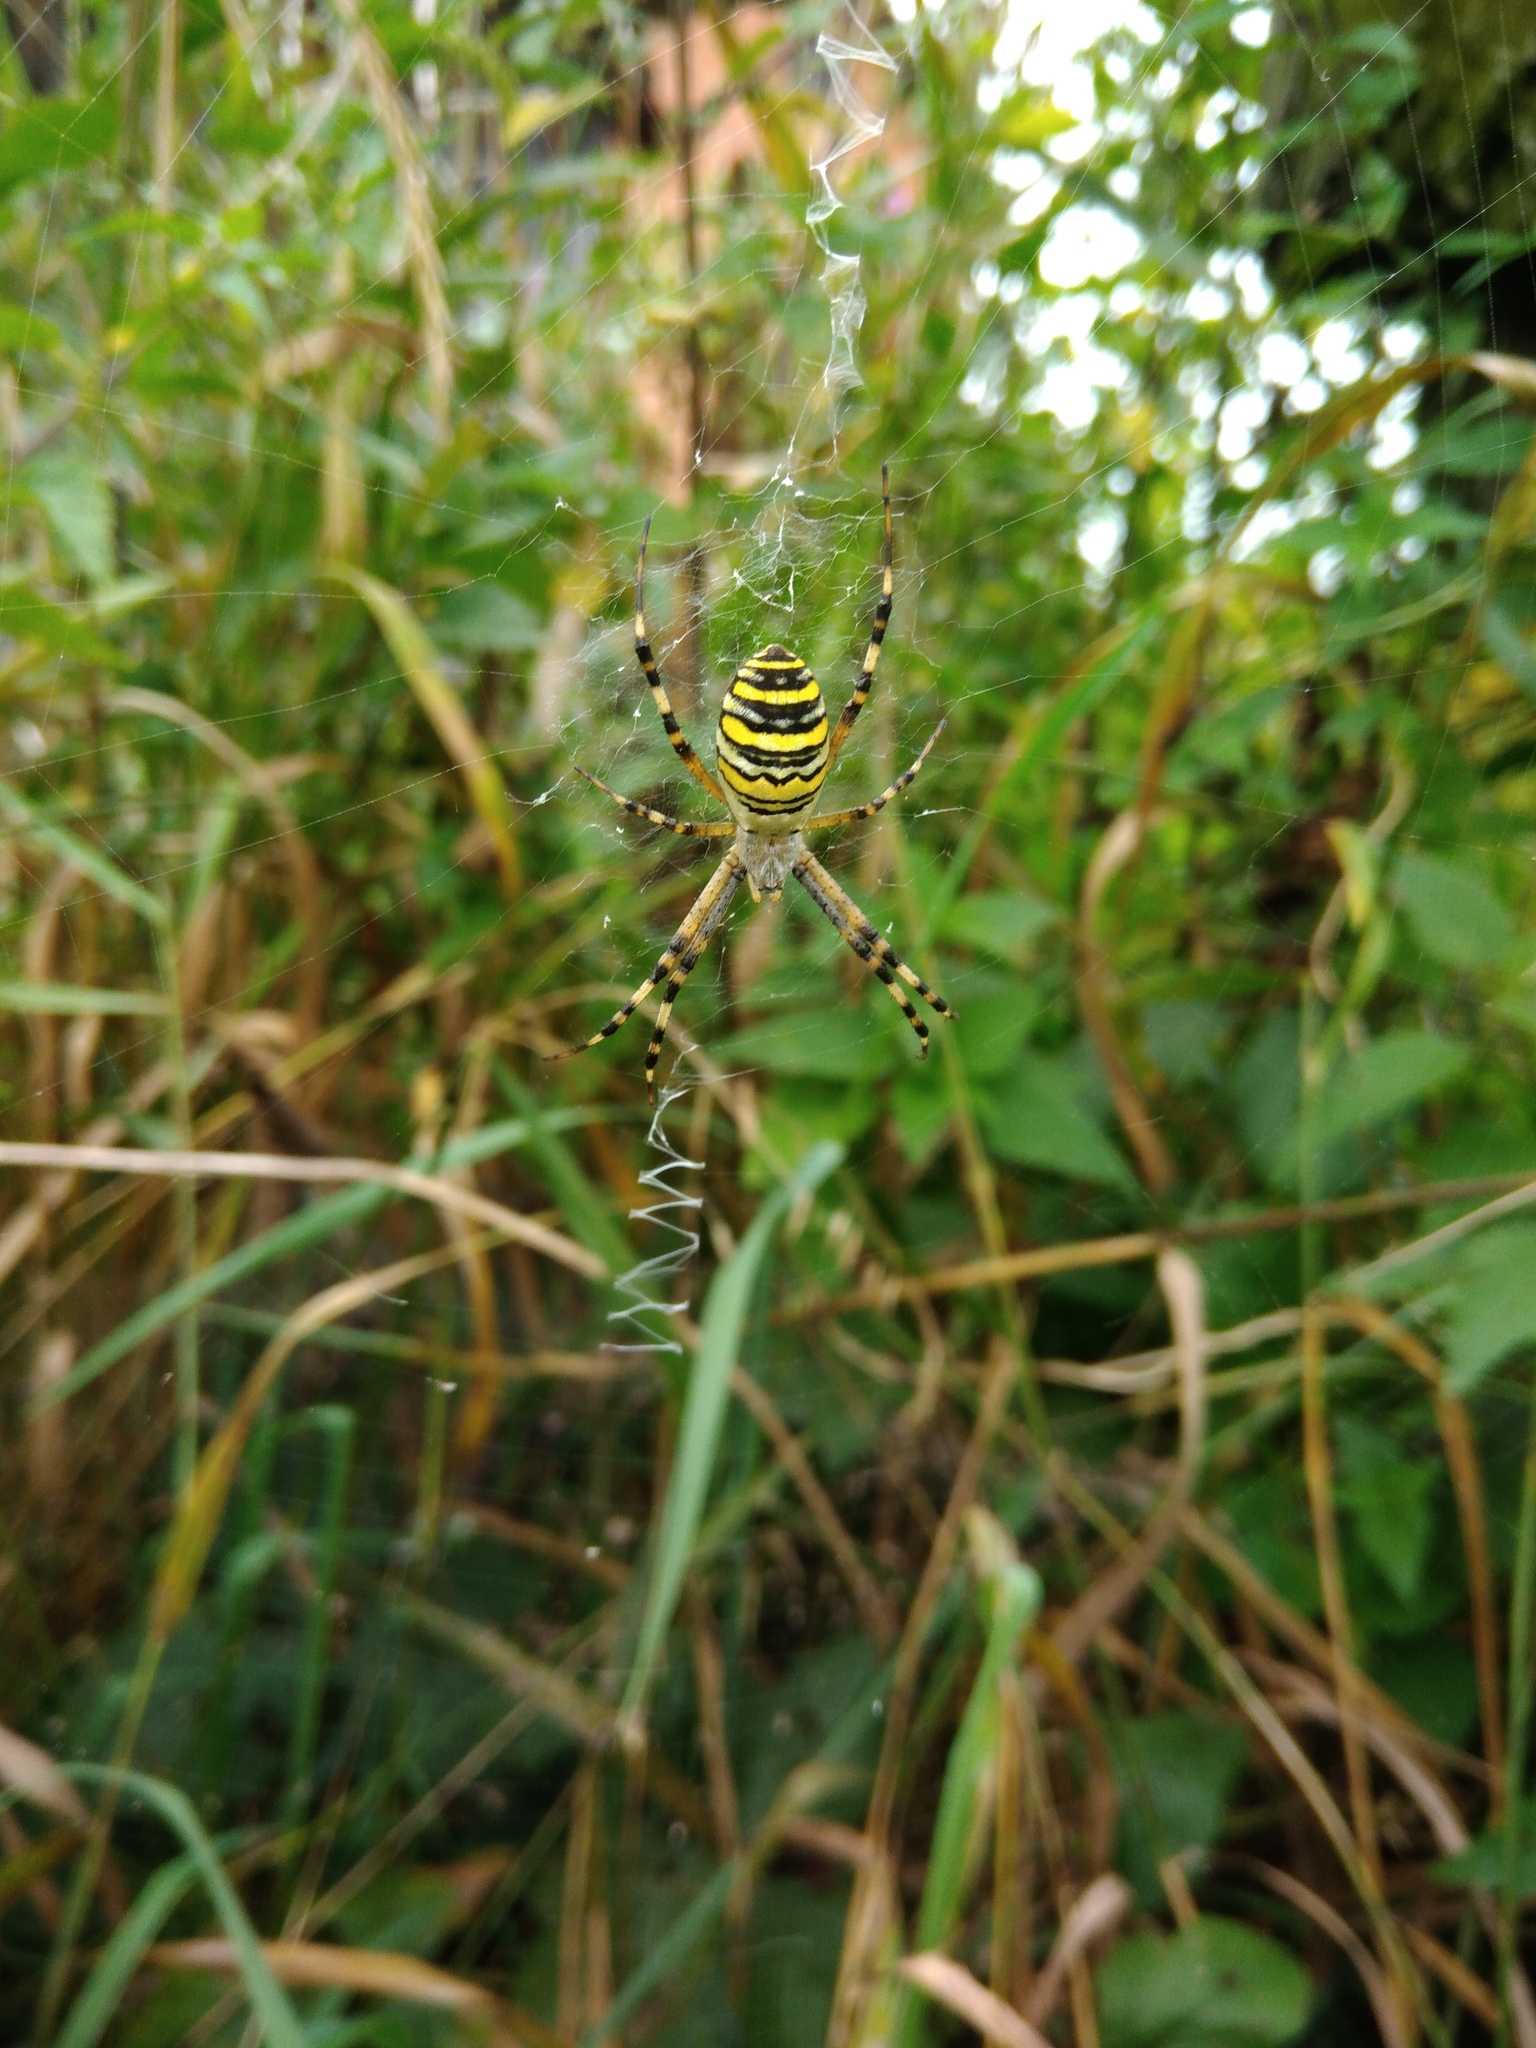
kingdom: Animalia
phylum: Arthropoda
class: Arachnida
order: Araneae
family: Araneidae
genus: Argiope
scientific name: Argiope bruennichi
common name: Wasp spider
